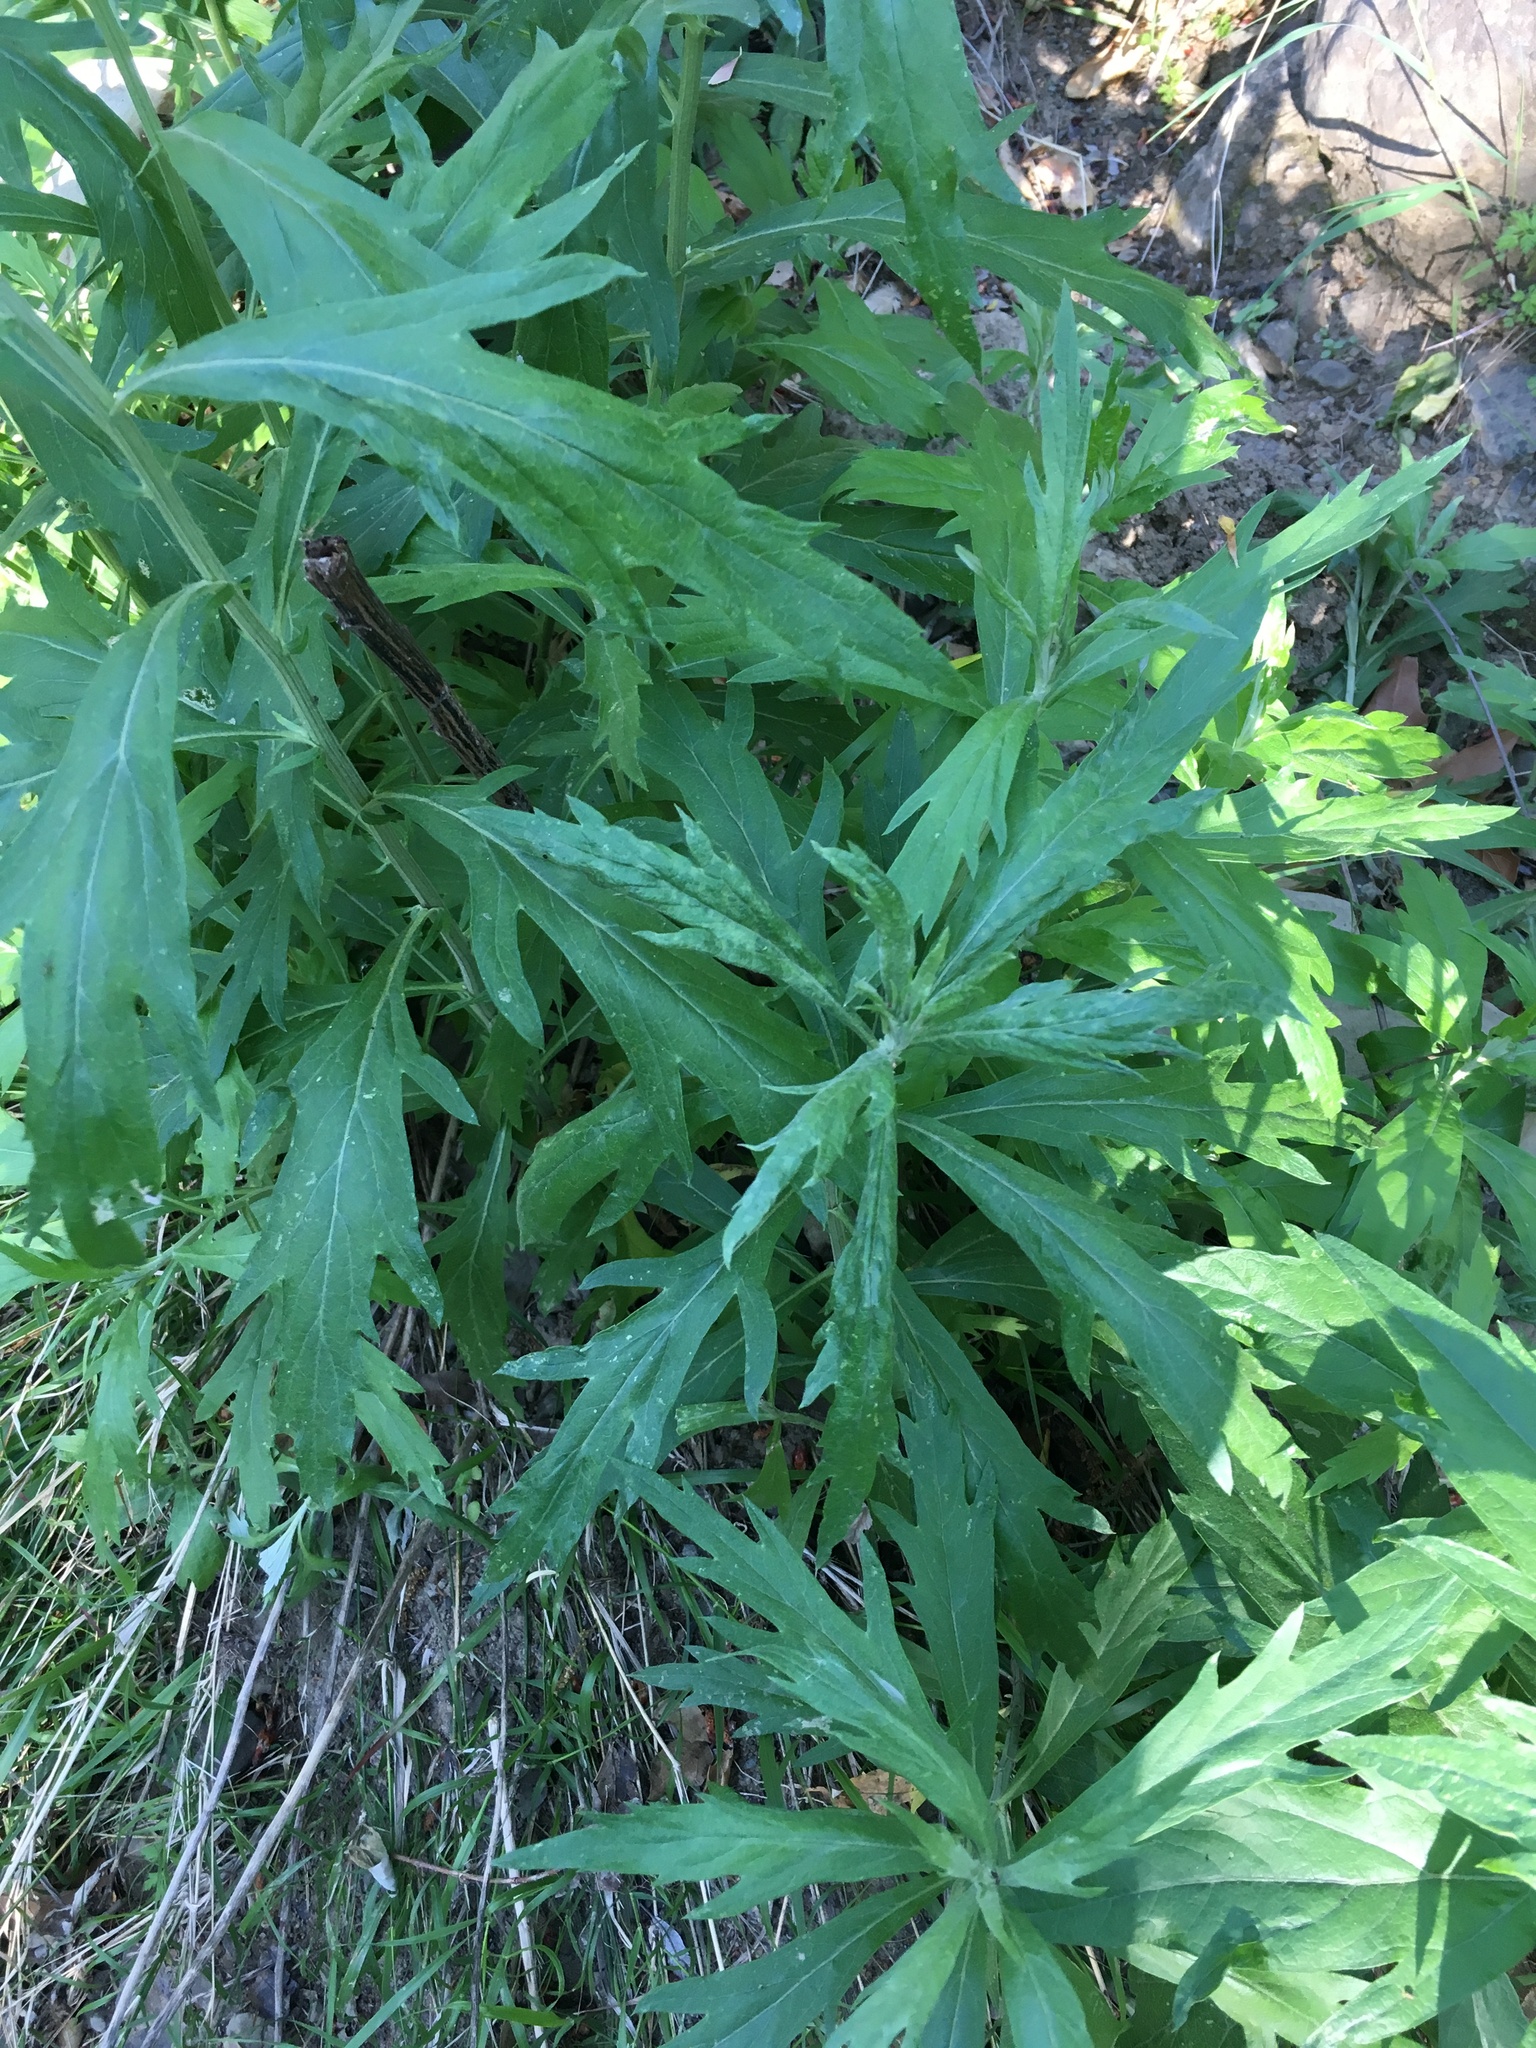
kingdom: Plantae
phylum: Tracheophyta
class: Magnoliopsida
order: Asterales
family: Asteraceae
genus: Artemisia
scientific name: Artemisia douglasiana
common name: Northwest mugwort
